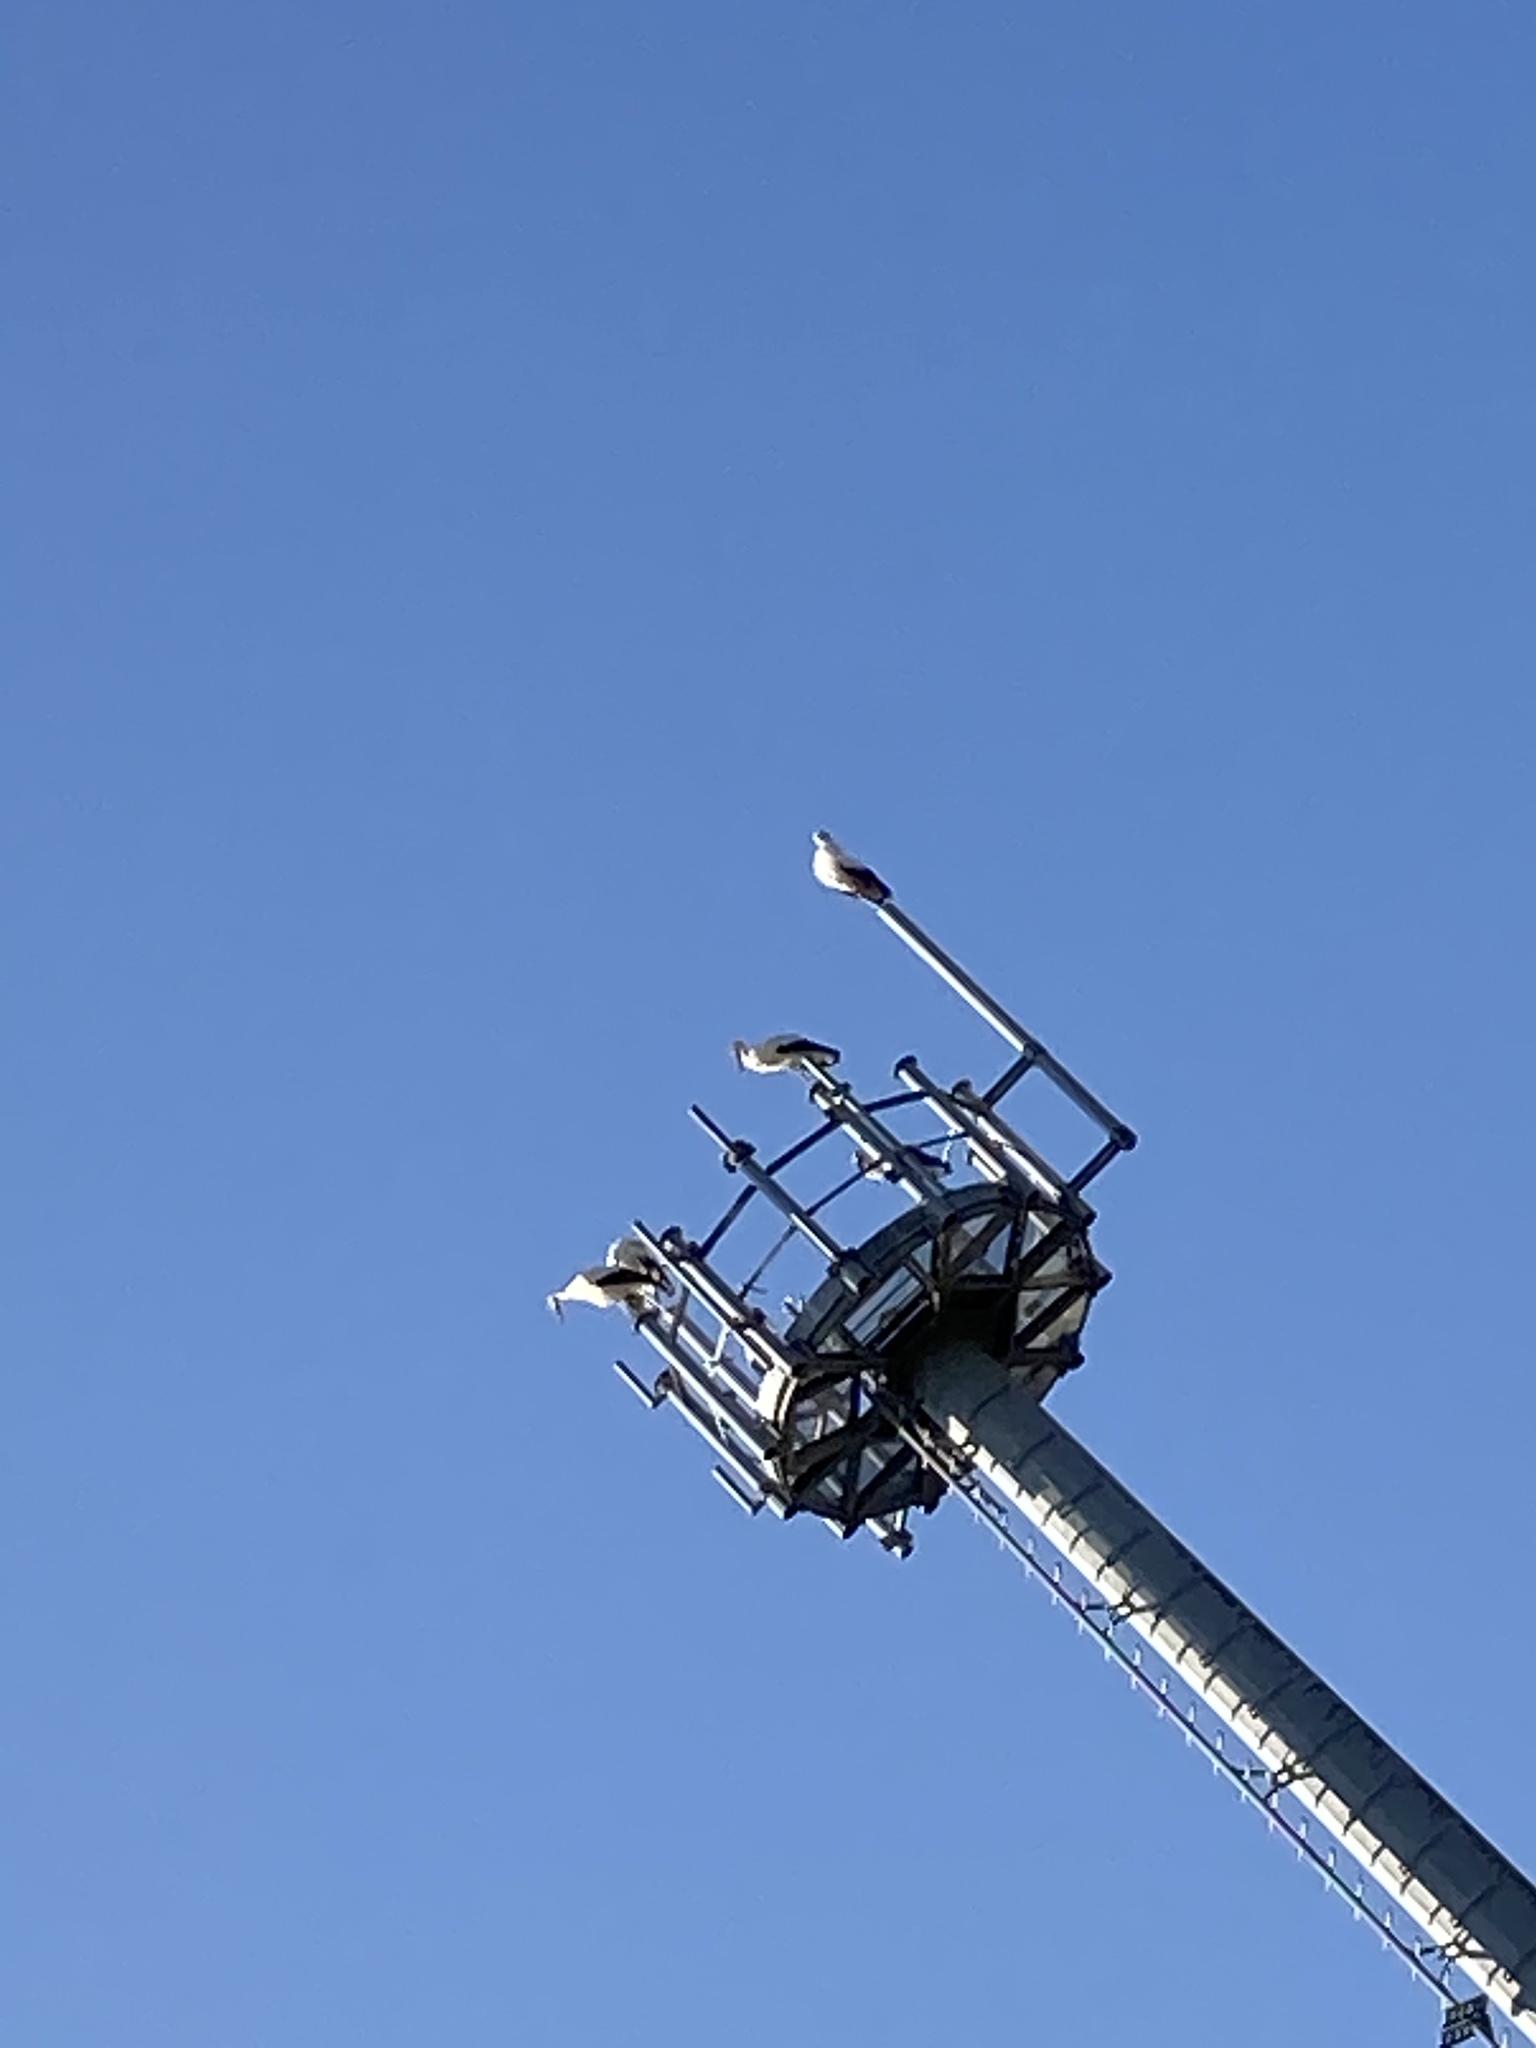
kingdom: Animalia
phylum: Chordata
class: Aves
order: Ciconiiformes
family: Ciconiidae
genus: Ciconia
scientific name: Ciconia ciconia
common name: White stork
